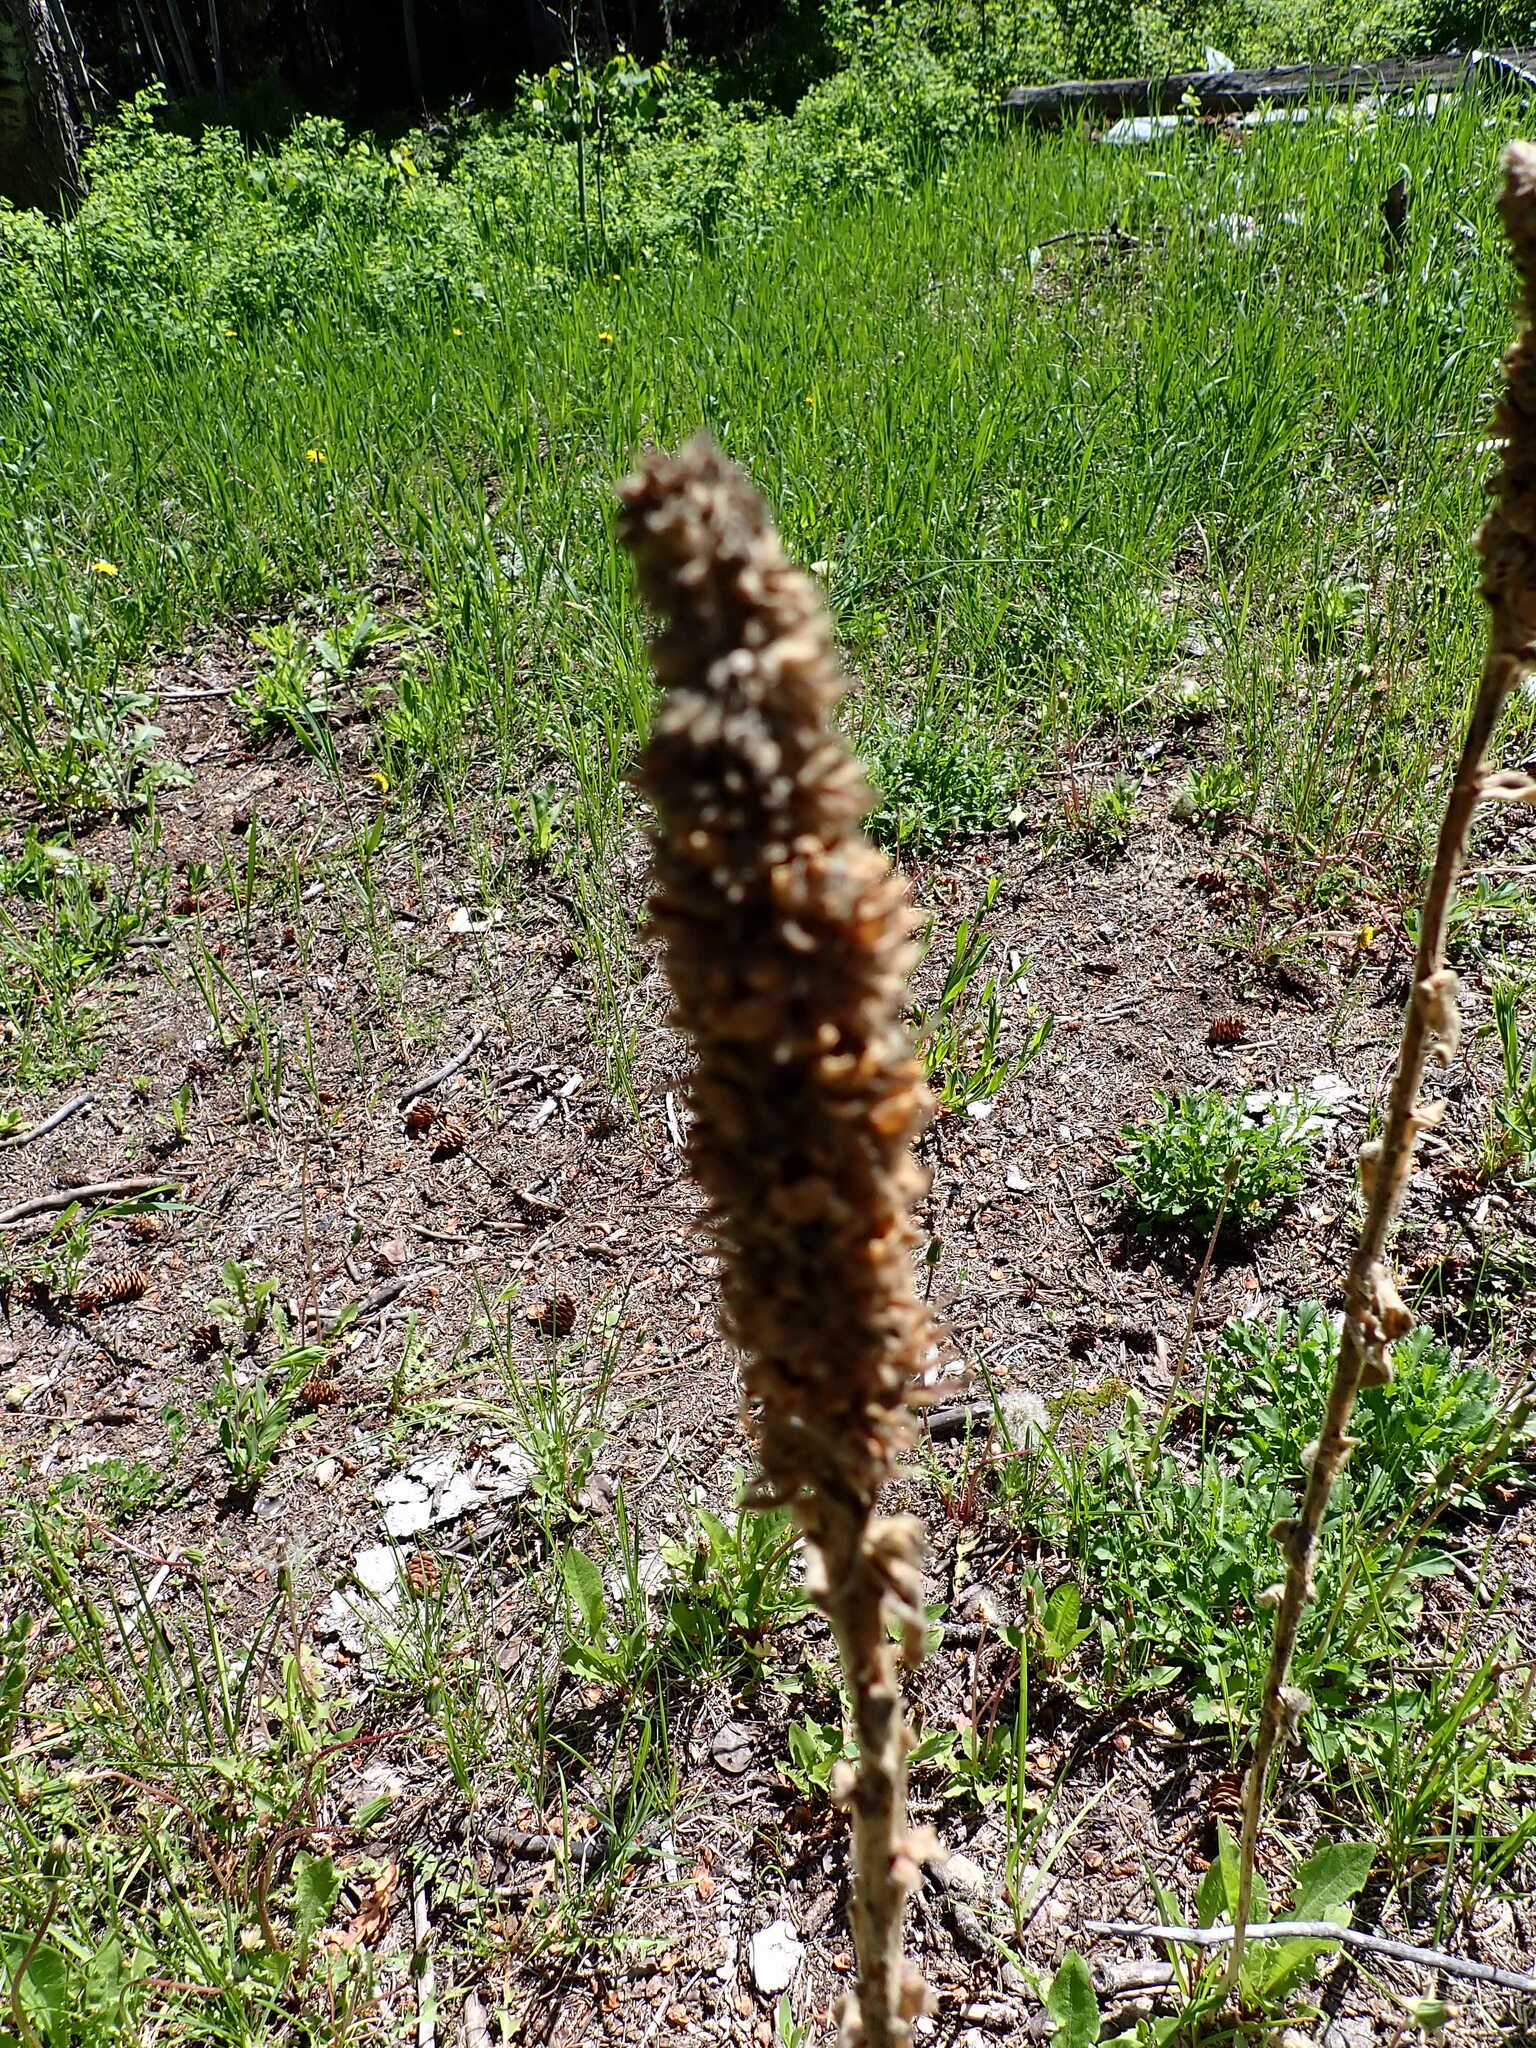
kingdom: Plantae
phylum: Tracheophyta
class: Magnoliopsida
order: Lamiales
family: Scrophulariaceae
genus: Verbascum
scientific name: Verbascum thapsus
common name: Common mullein
